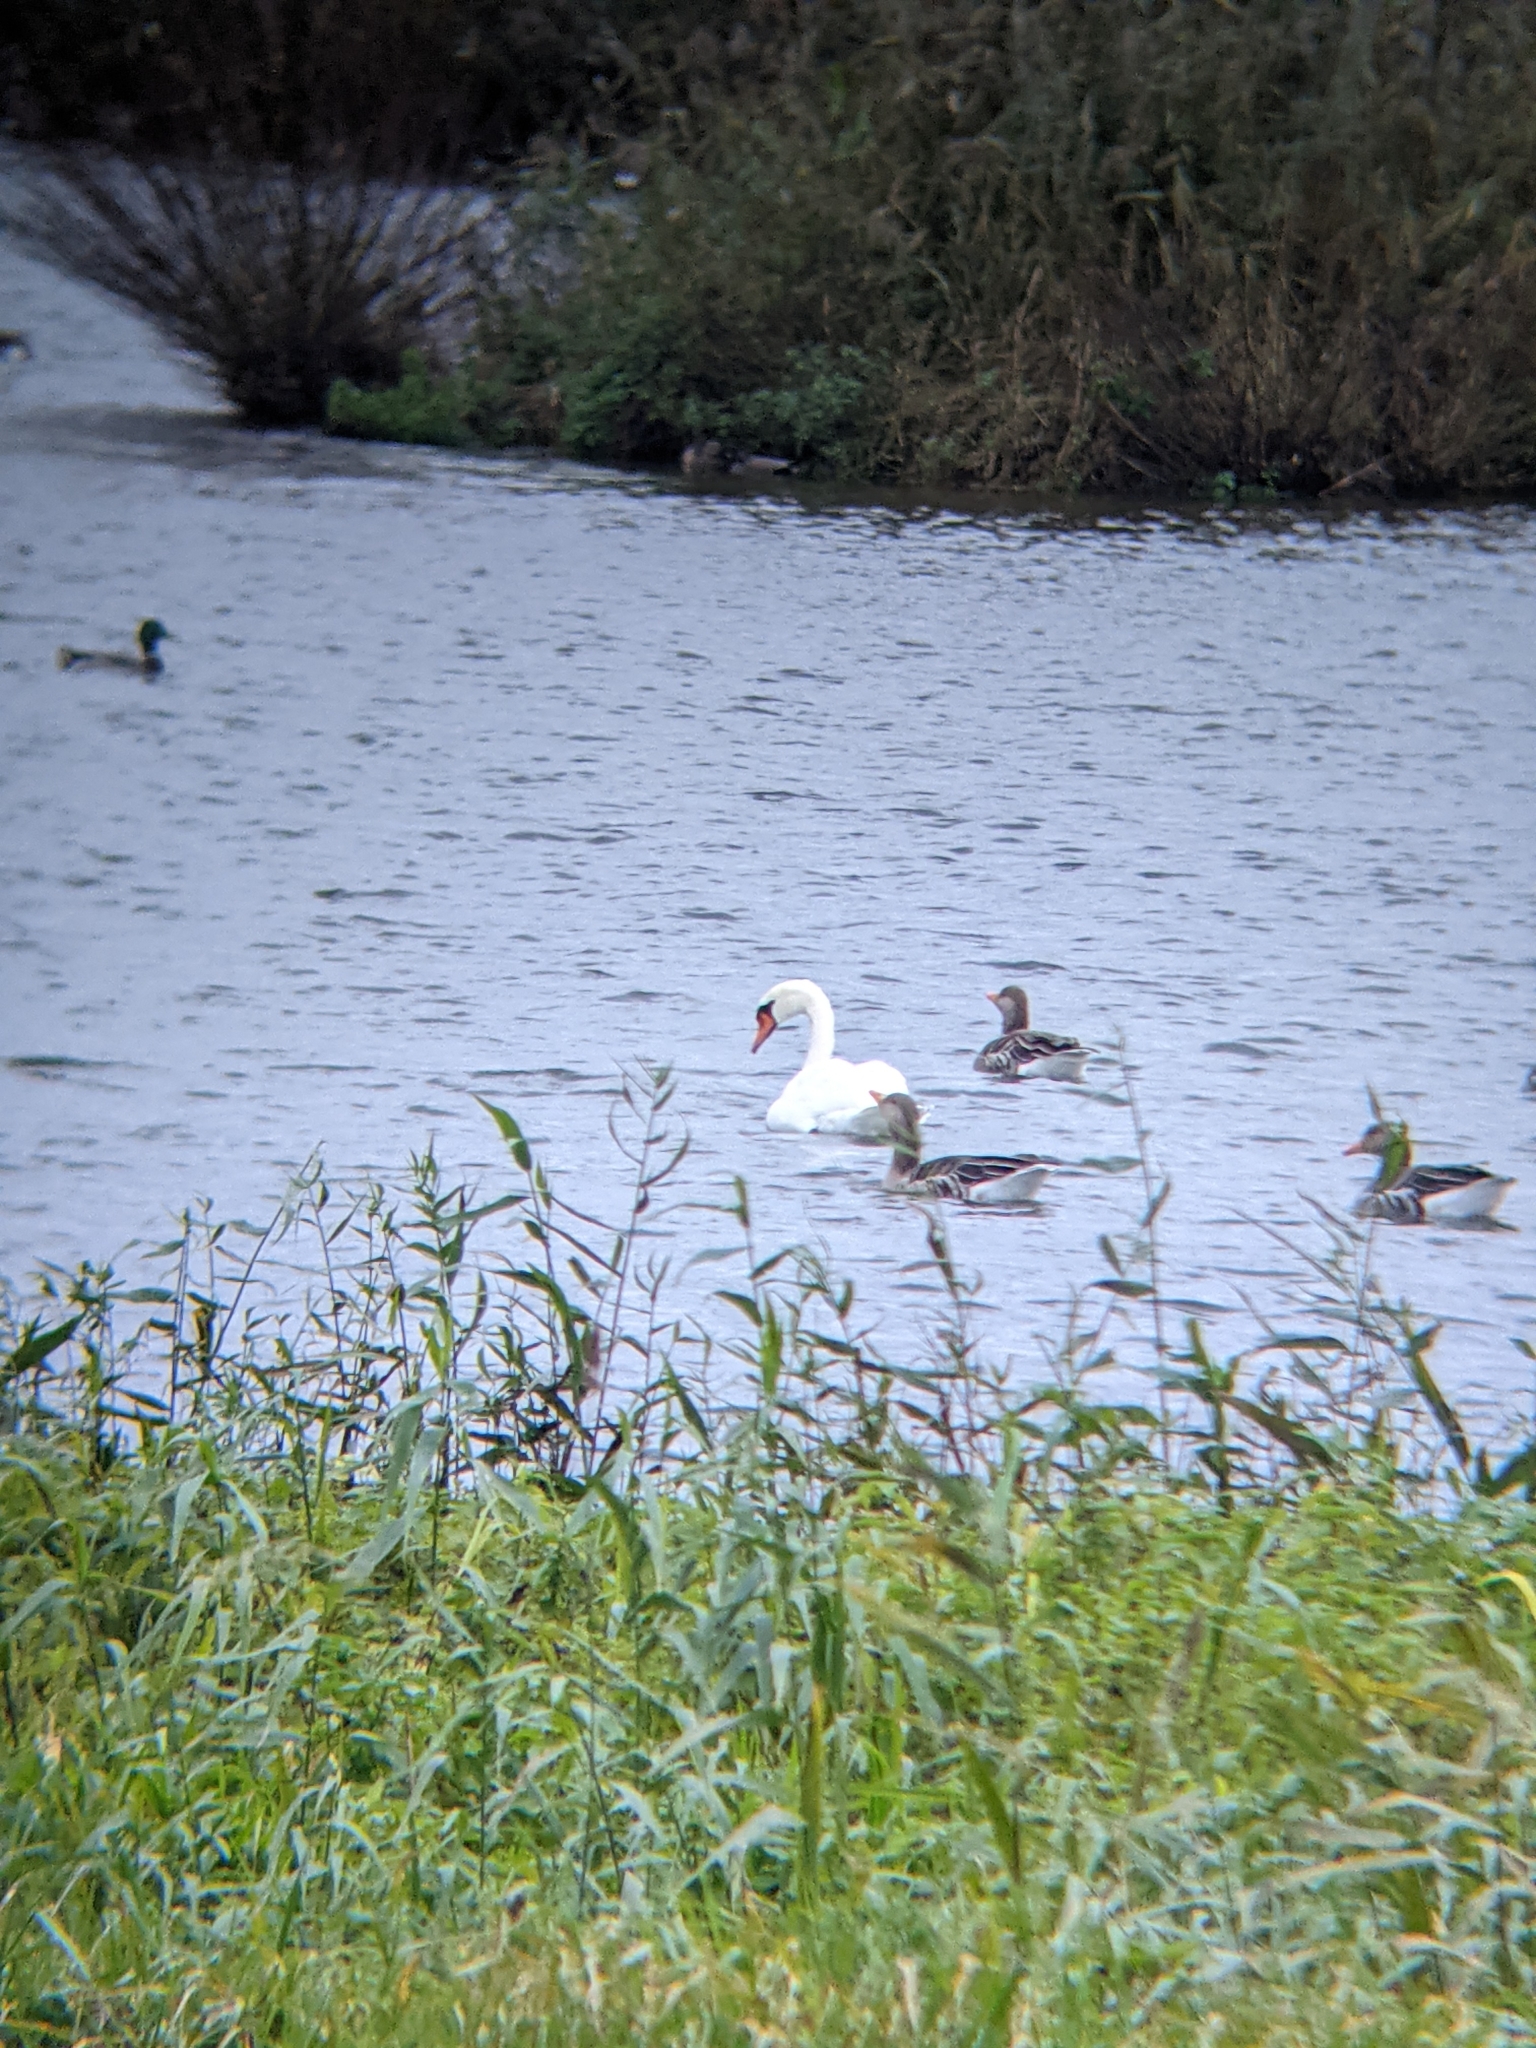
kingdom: Animalia
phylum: Chordata
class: Aves
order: Anseriformes
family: Anatidae
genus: Cygnus
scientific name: Cygnus olor
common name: Mute swan
